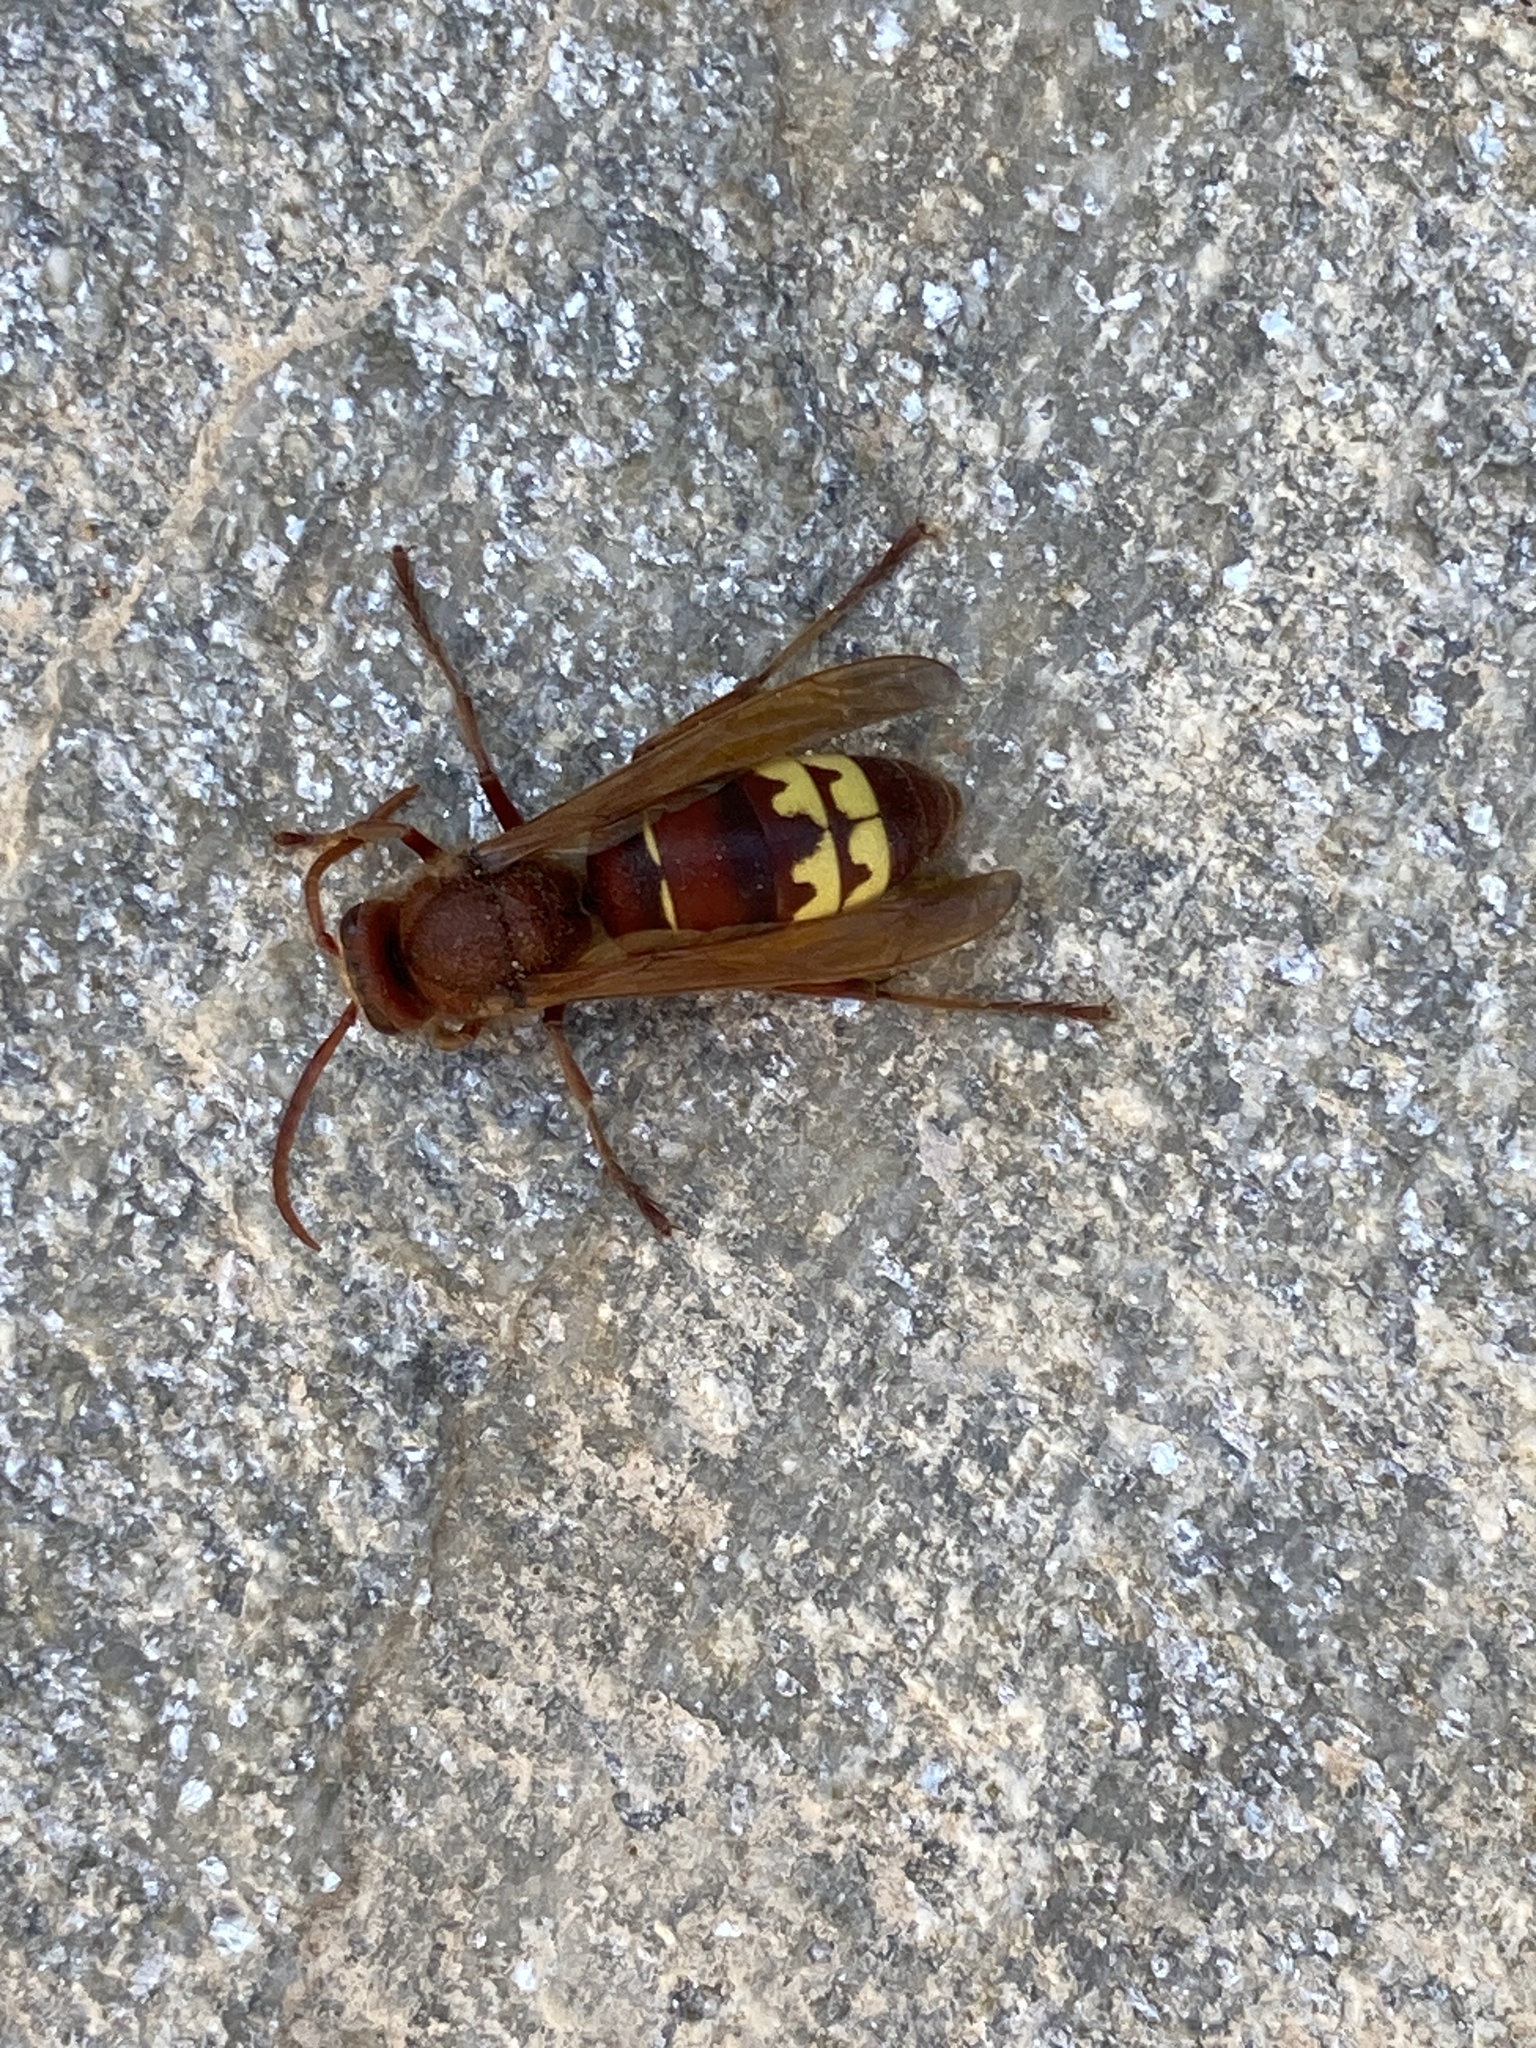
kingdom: Animalia
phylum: Arthropoda
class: Insecta
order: Hymenoptera
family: Vespidae
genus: Vespa
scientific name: Vespa orientalis
